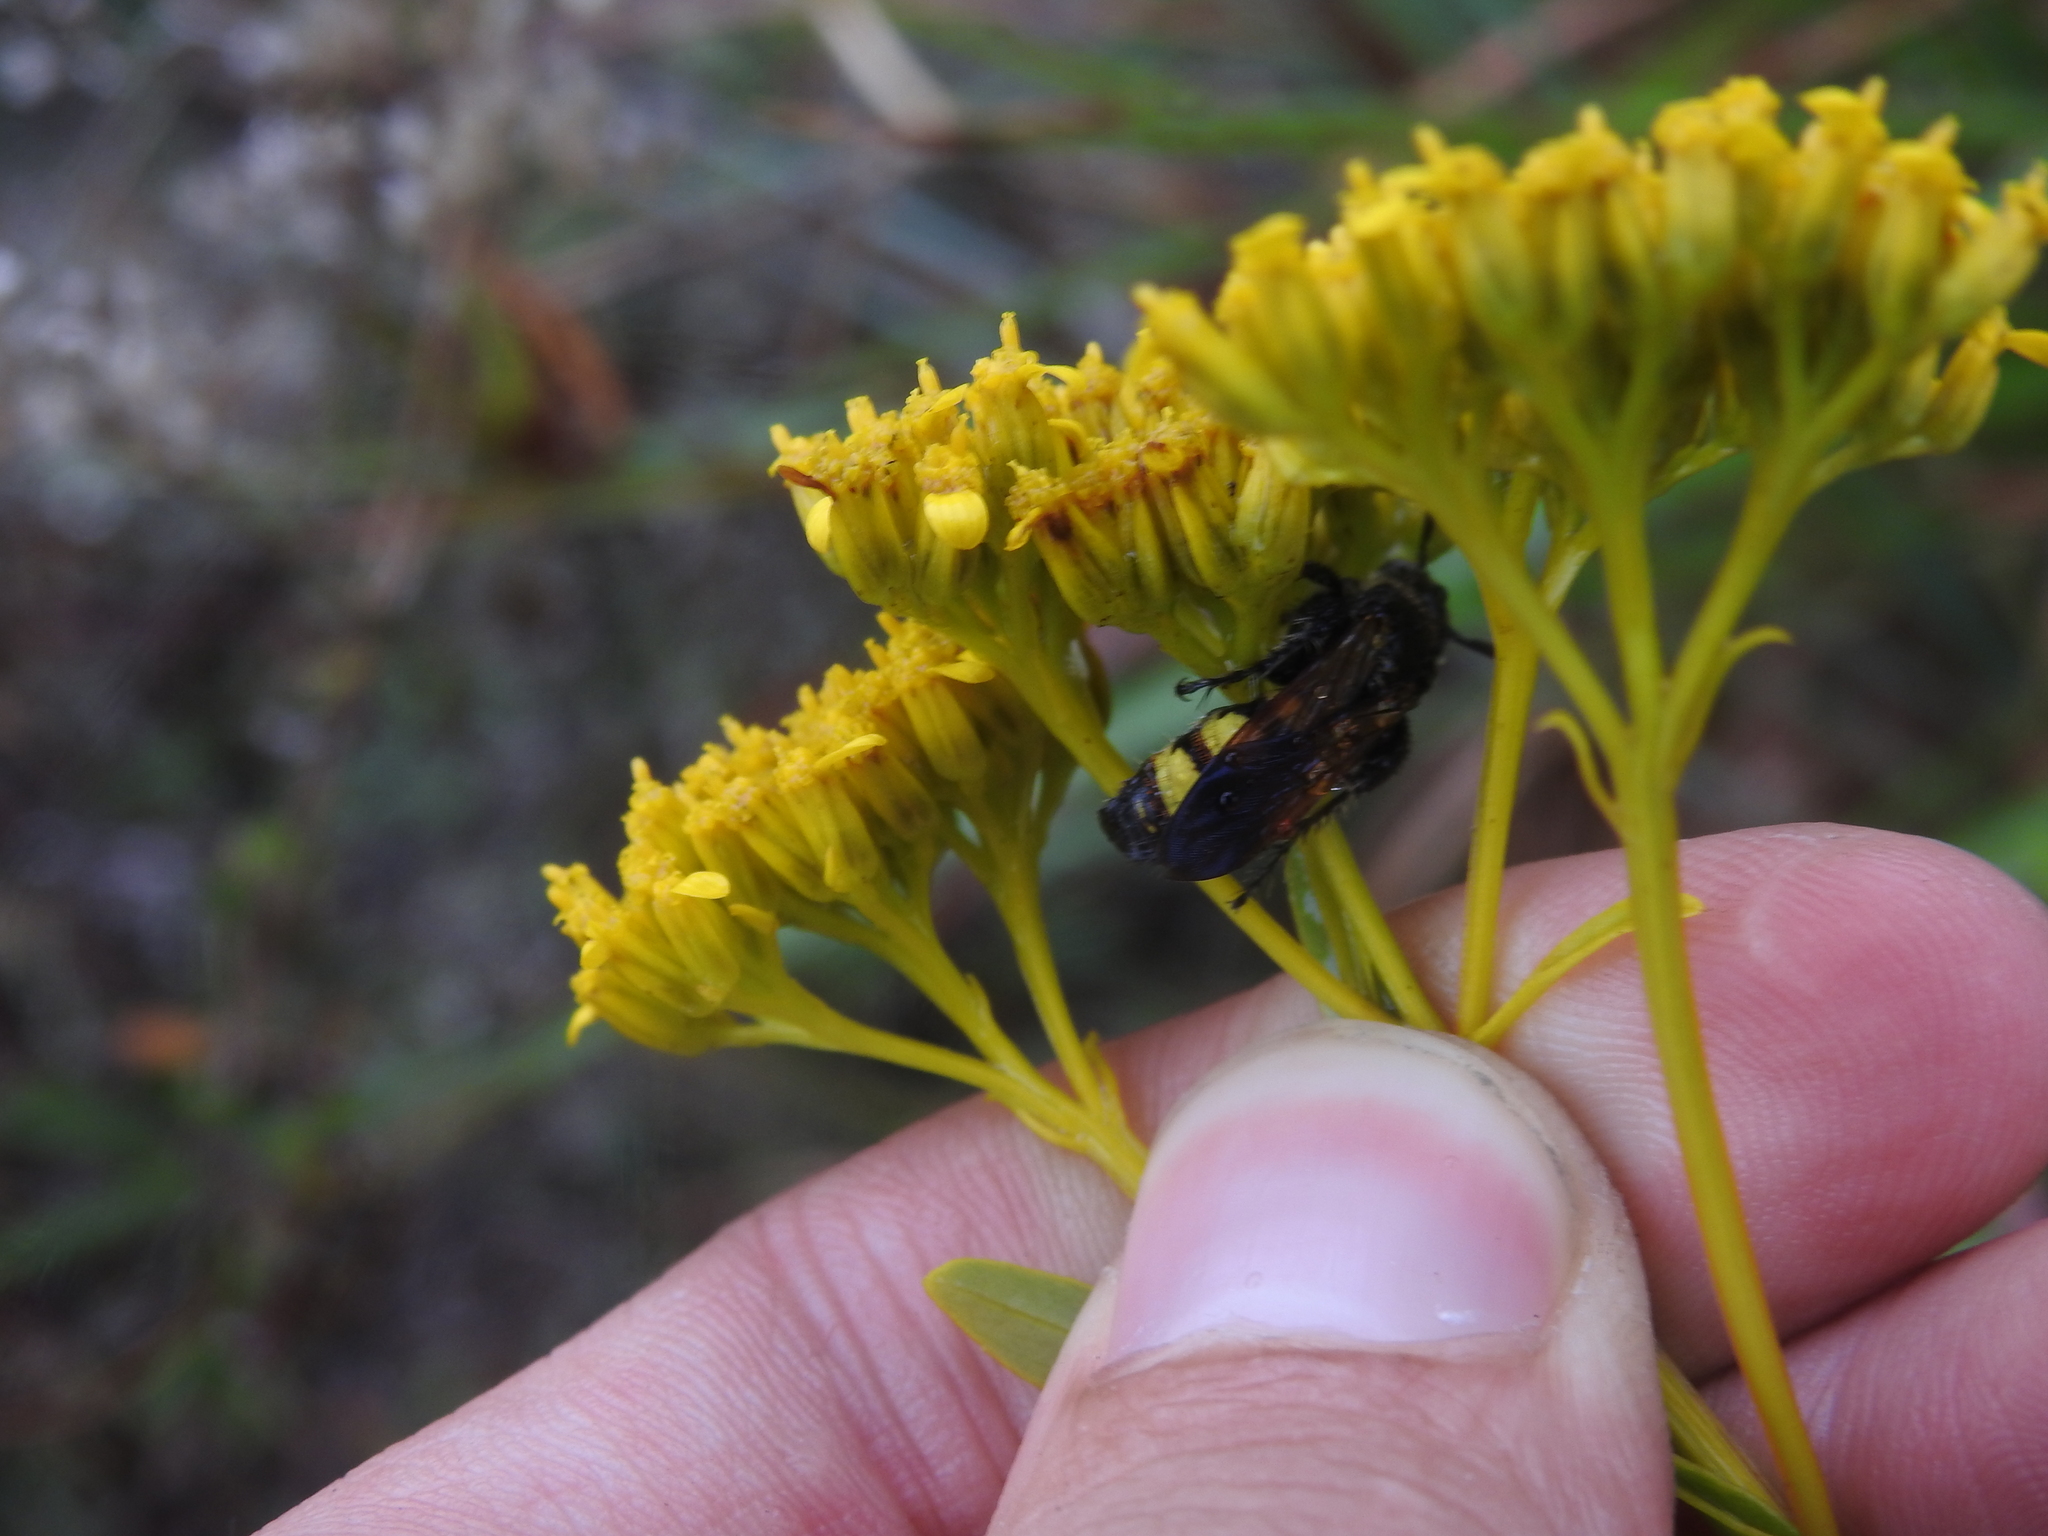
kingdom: Animalia
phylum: Arthropoda
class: Insecta
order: Hymenoptera
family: Scoliidae
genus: Dielis
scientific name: Dielis
